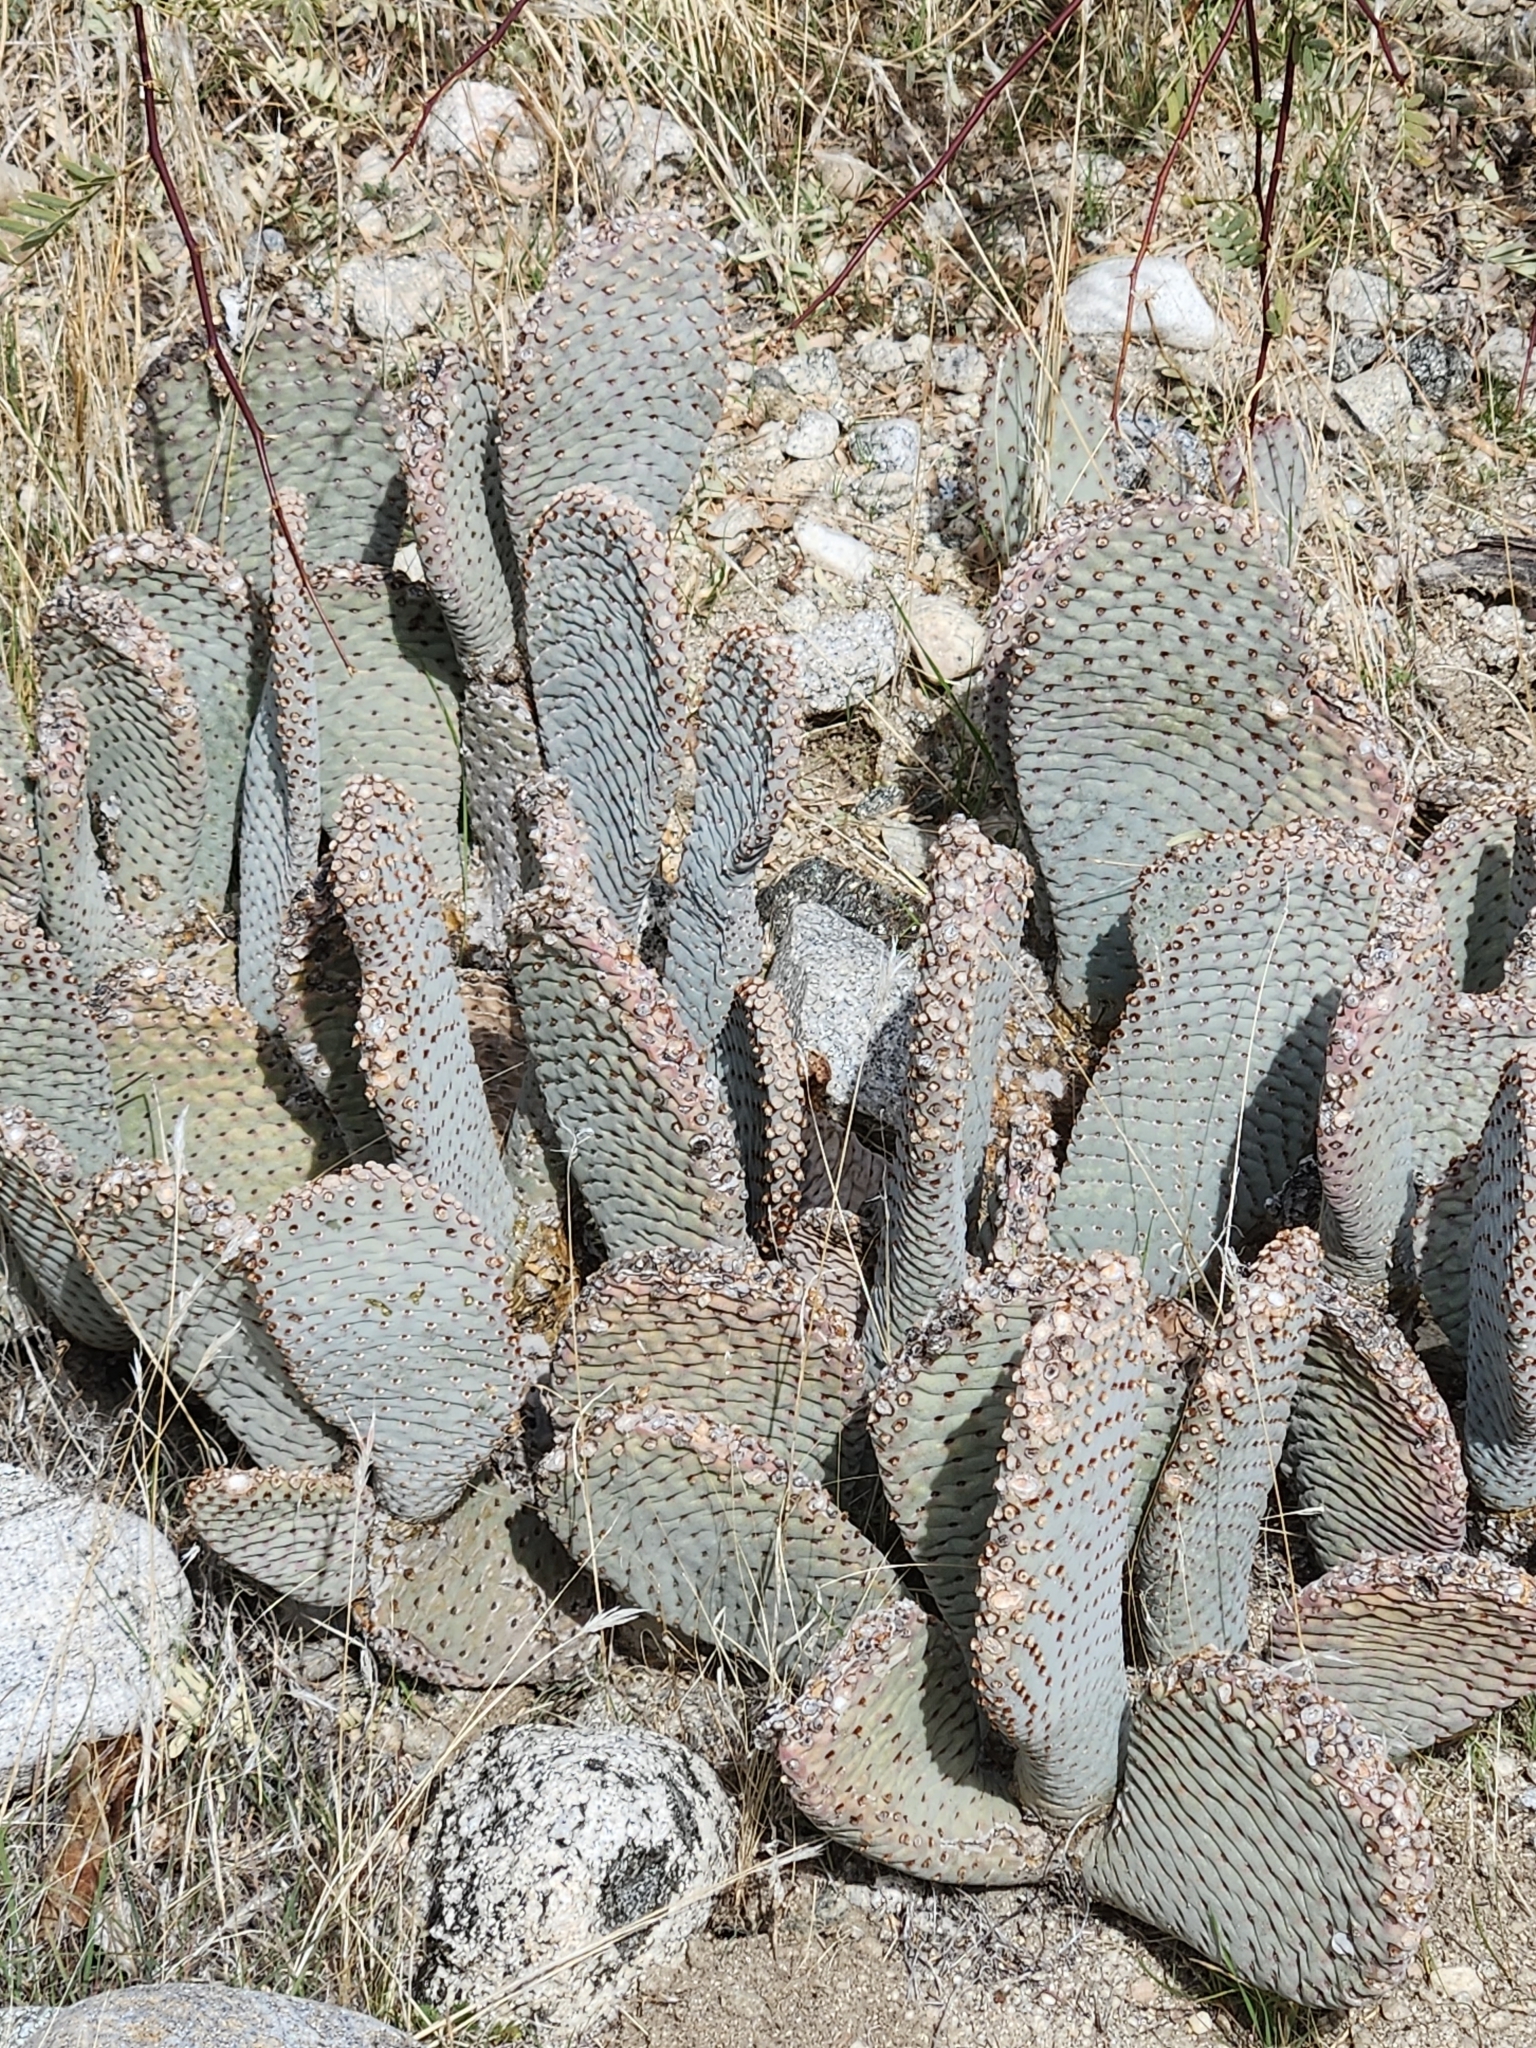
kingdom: Plantae
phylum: Tracheophyta
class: Magnoliopsida
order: Caryophyllales
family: Cactaceae
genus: Opuntia
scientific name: Opuntia basilaris
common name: Beavertail prickly-pear
